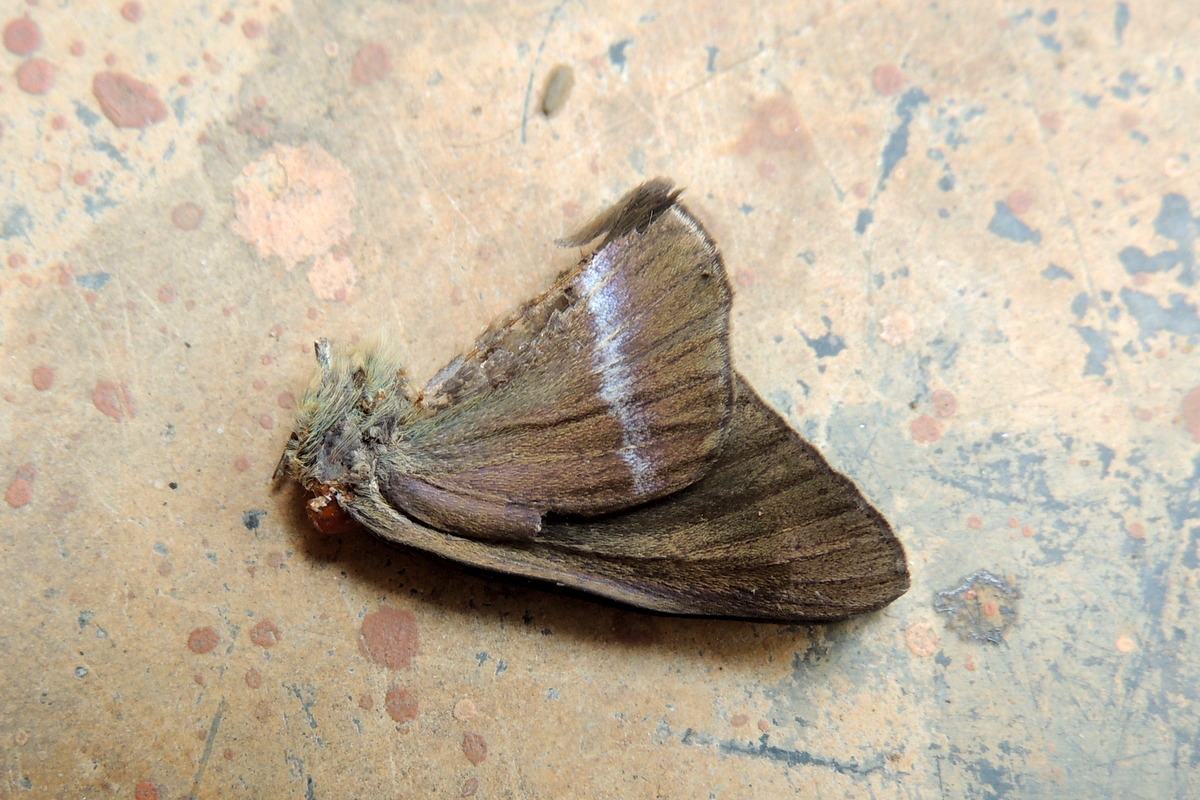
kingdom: Animalia
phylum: Arthropoda
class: Insecta
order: Lepidoptera
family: Hesperiidae
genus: Hasora
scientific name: Hasora chromus
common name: Common banded awl
